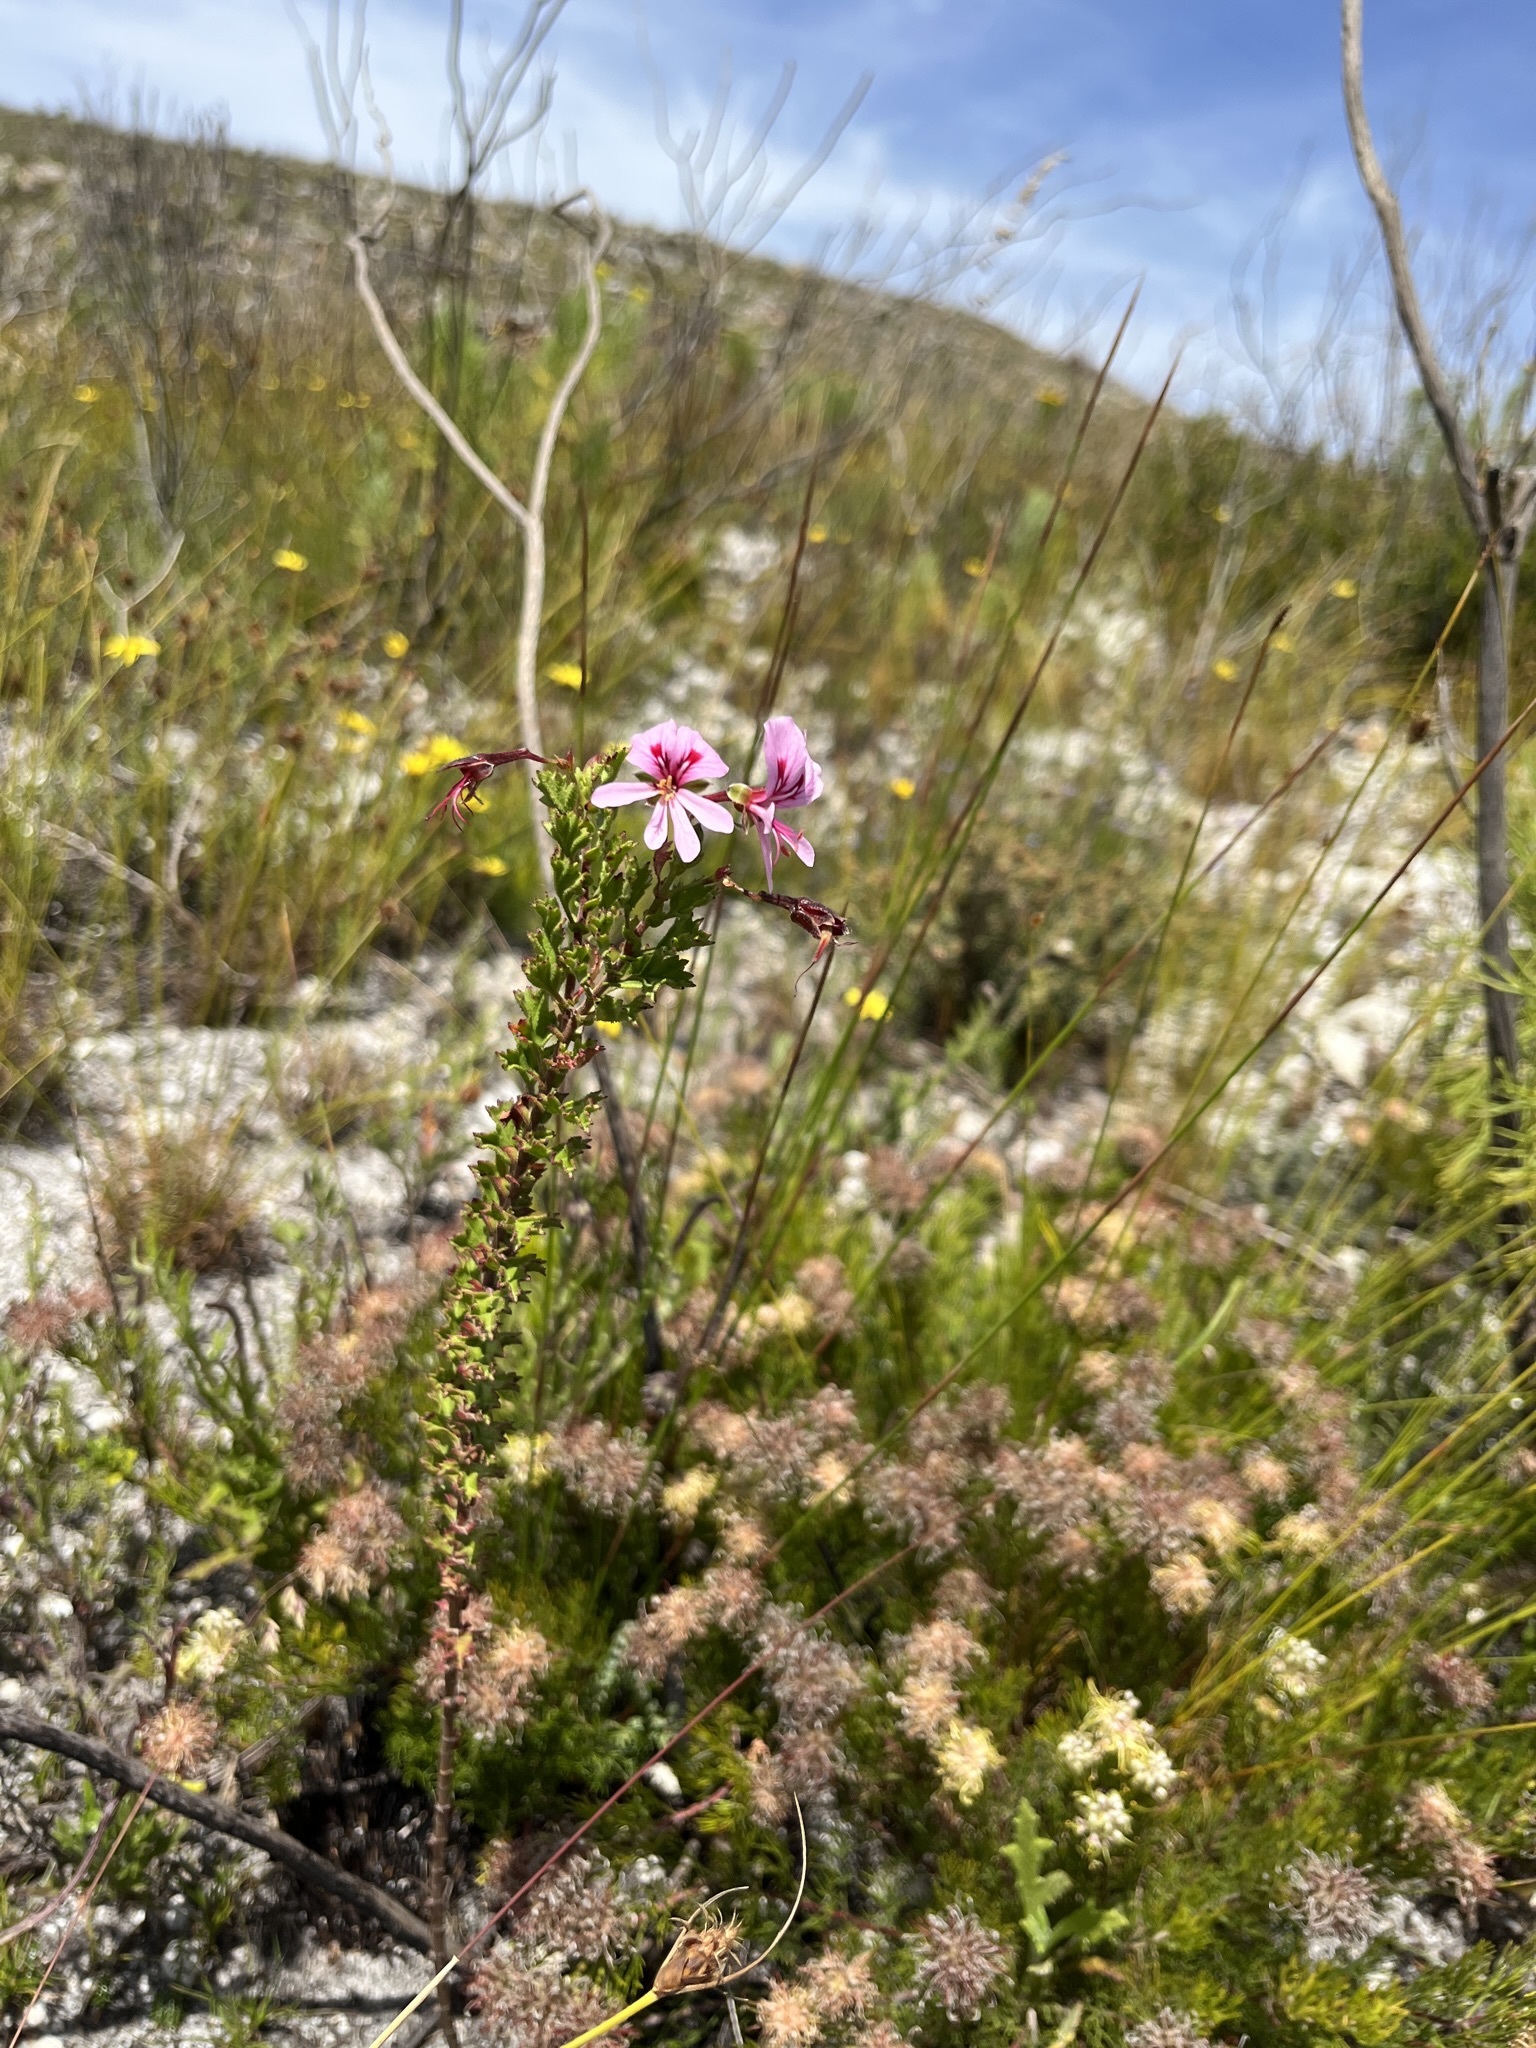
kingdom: Plantae
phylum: Tracheophyta
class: Magnoliopsida
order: Geraniales
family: Geraniaceae
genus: Pelargonium
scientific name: Pelargonium hermaniifolium
